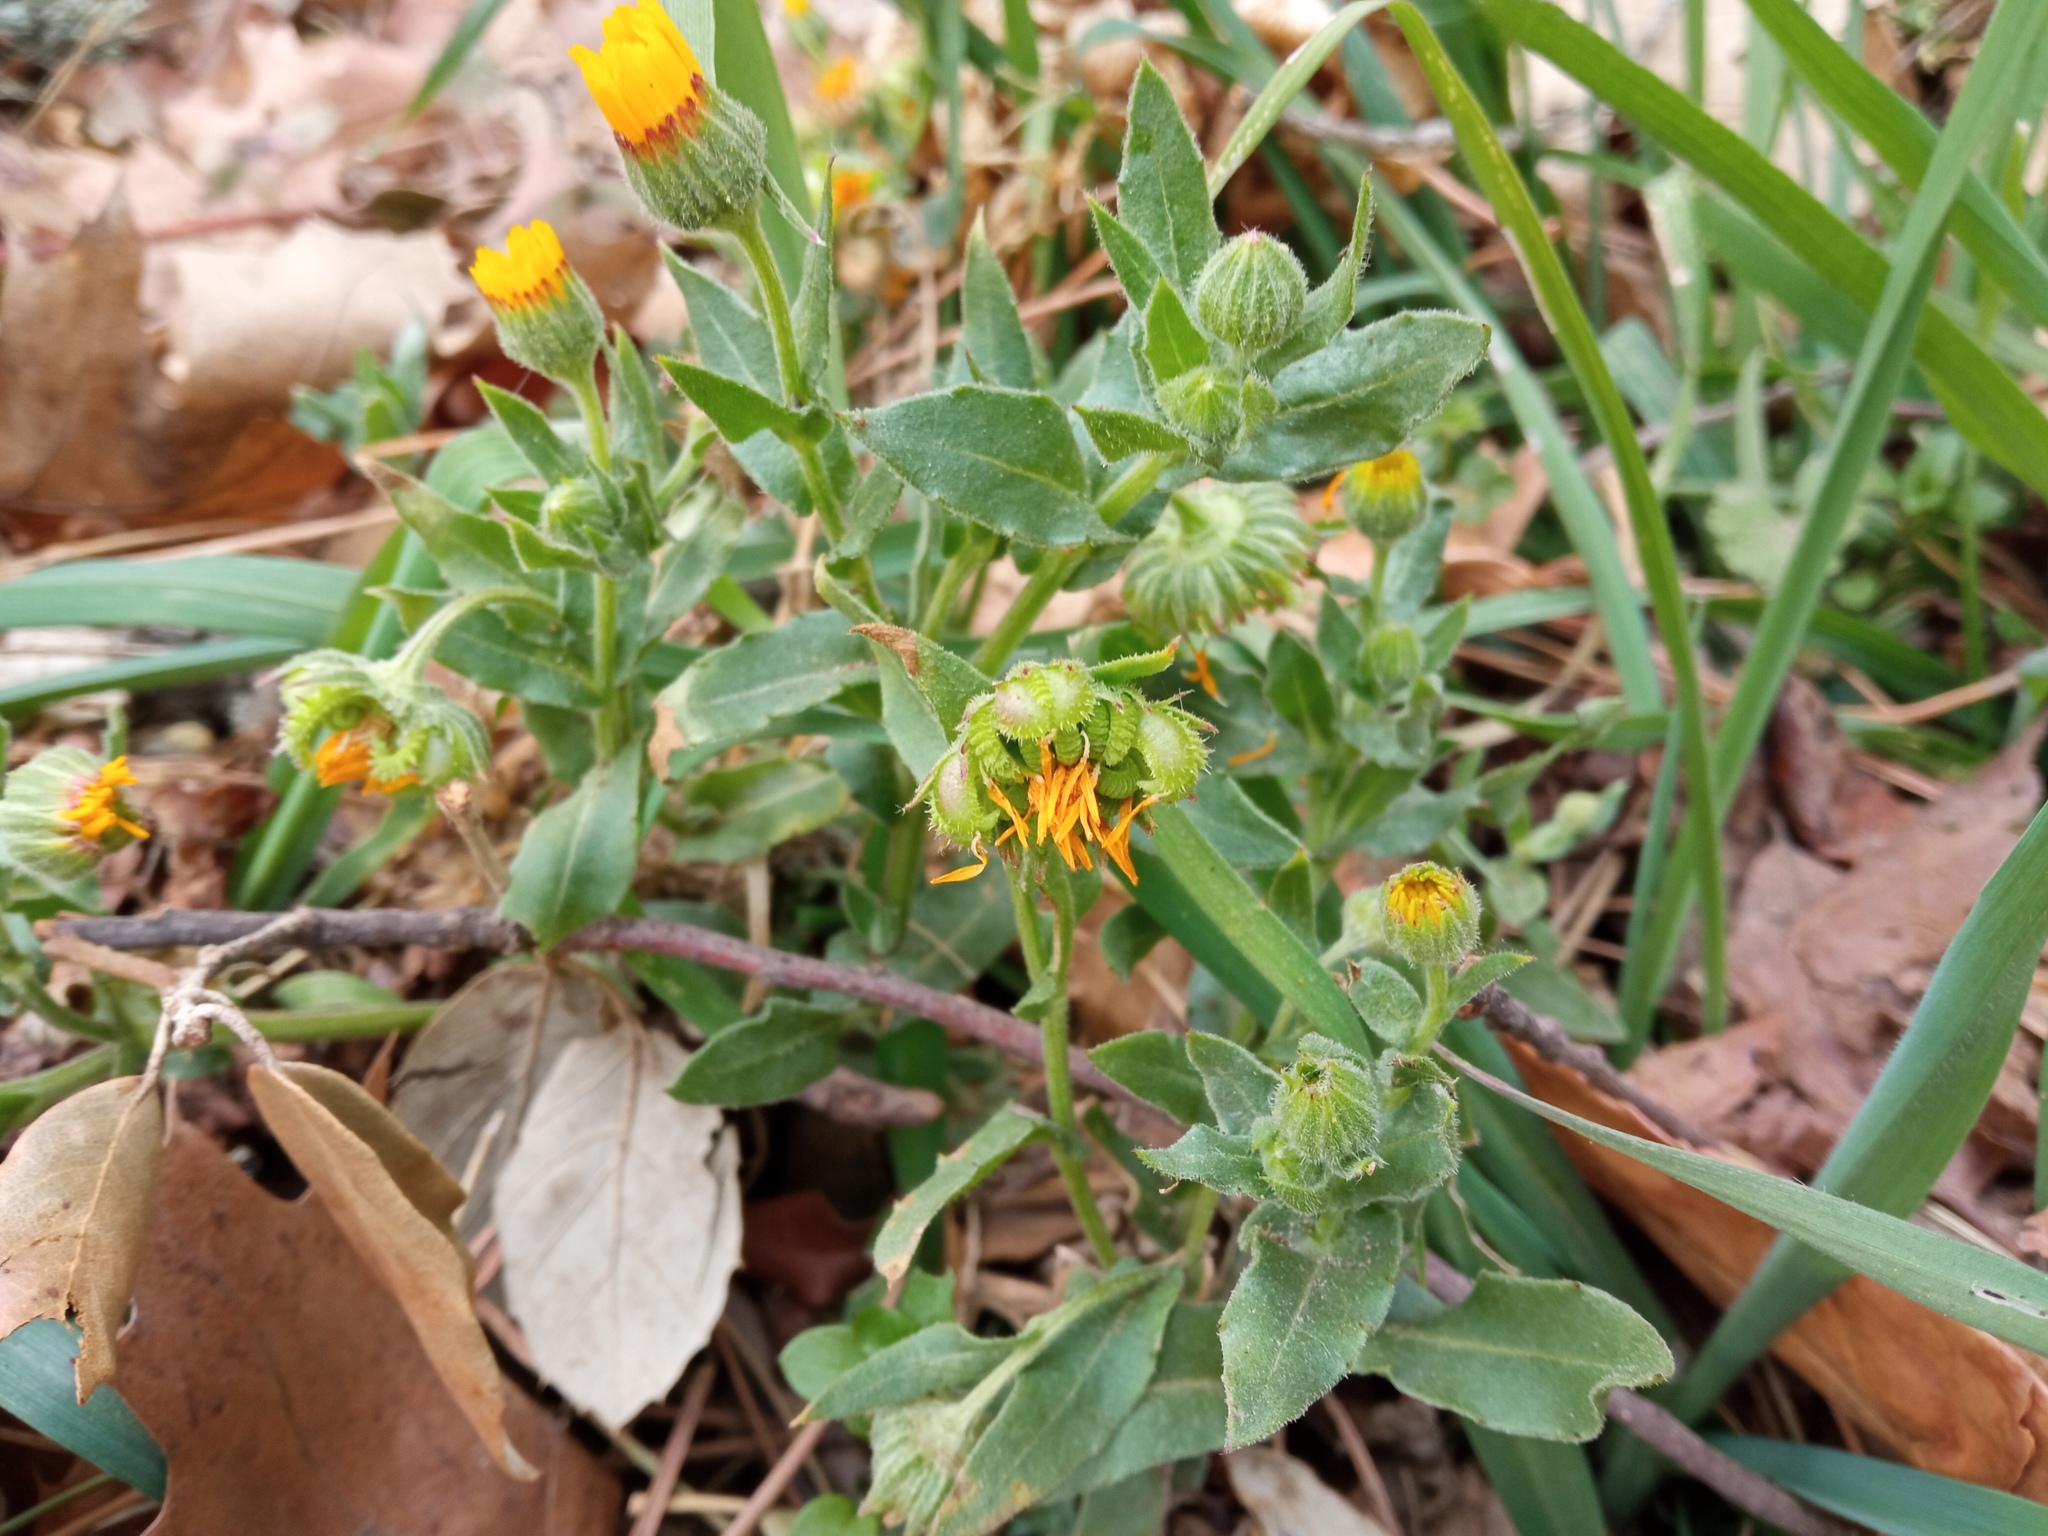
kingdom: Plantae
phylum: Tracheophyta
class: Magnoliopsida
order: Asterales
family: Asteraceae
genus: Calendula
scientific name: Calendula arvensis
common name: Field marigold
